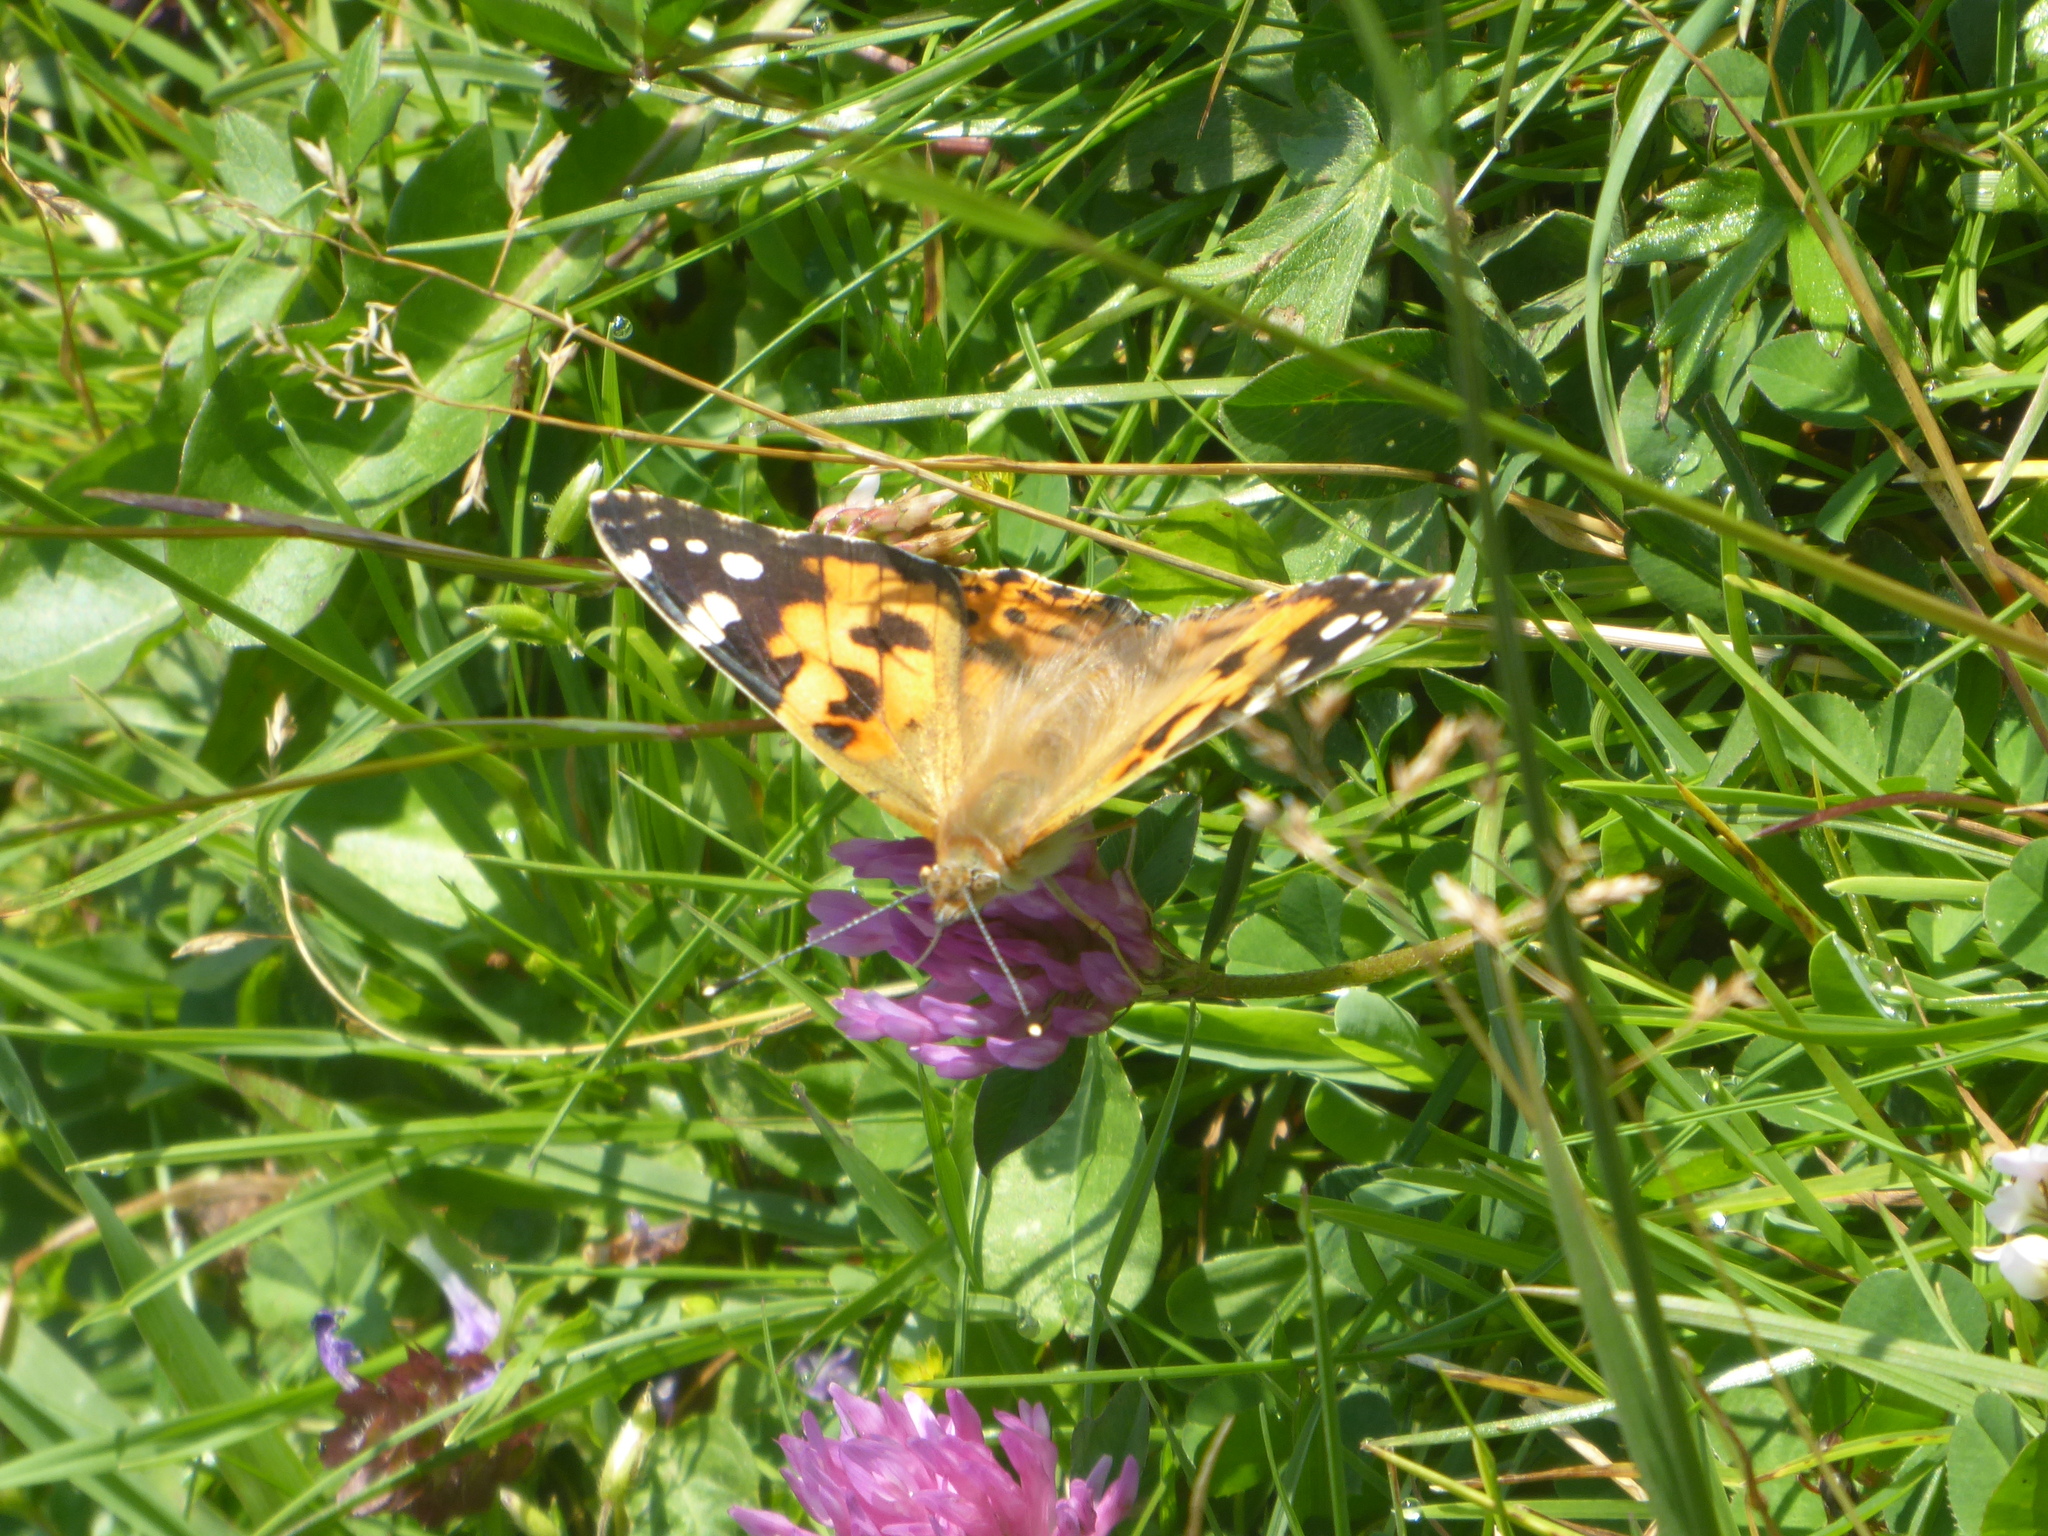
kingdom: Animalia
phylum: Arthropoda
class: Insecta
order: Lepidoptera
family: Nymphalidae
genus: Vanessa
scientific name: Vanessa cardui
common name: Painted lady
